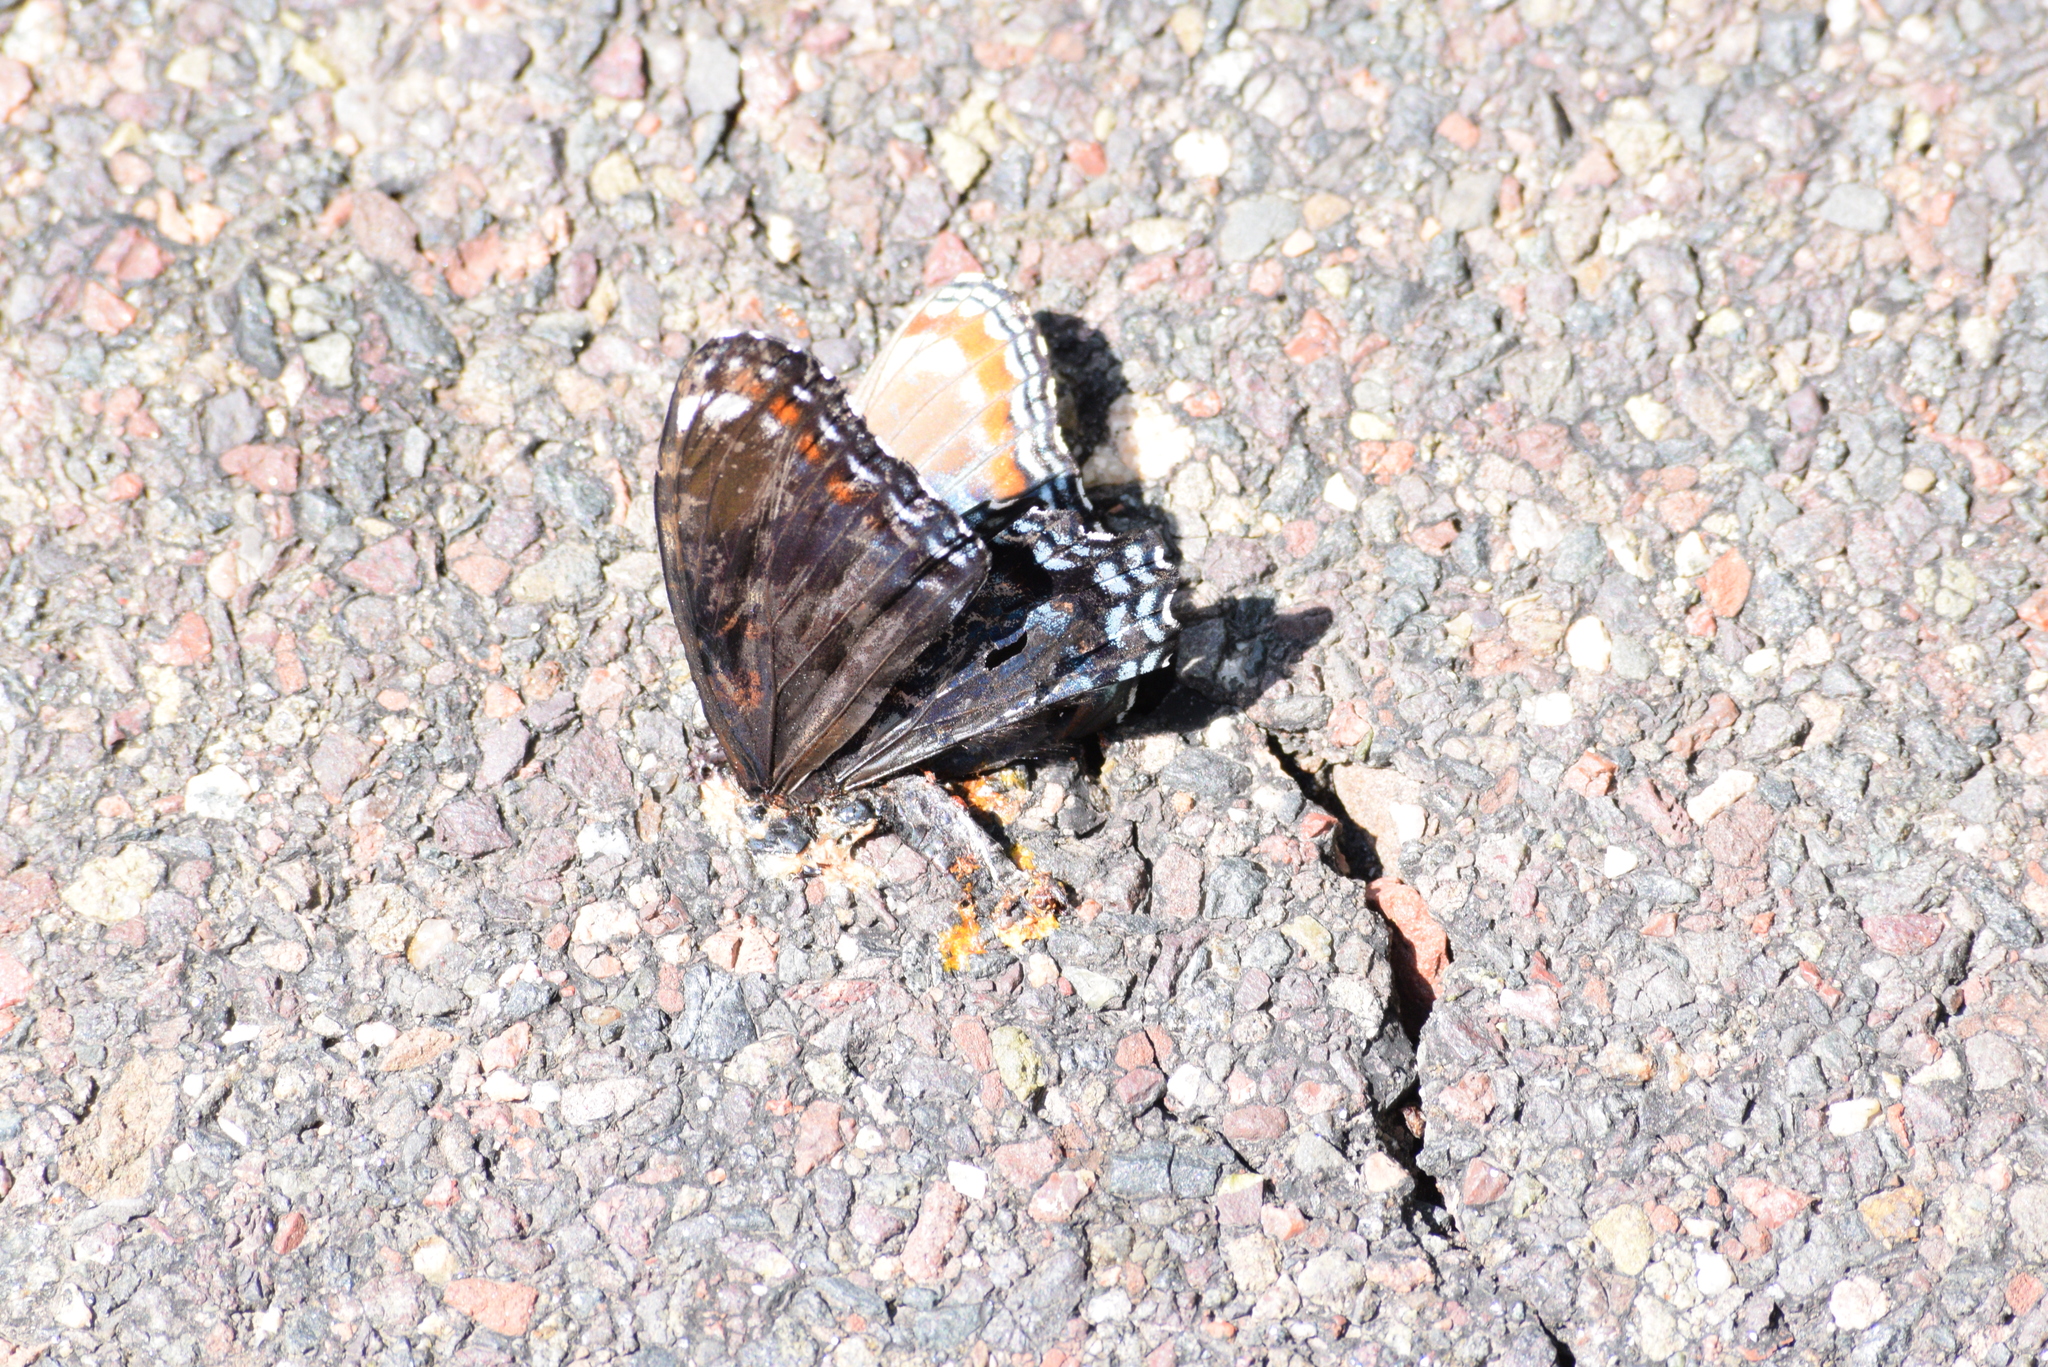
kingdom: Animalia
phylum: Arthropoda
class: Insecta
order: Lepidoptera
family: Nymphalidae
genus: Limenitis
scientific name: Limenitis
